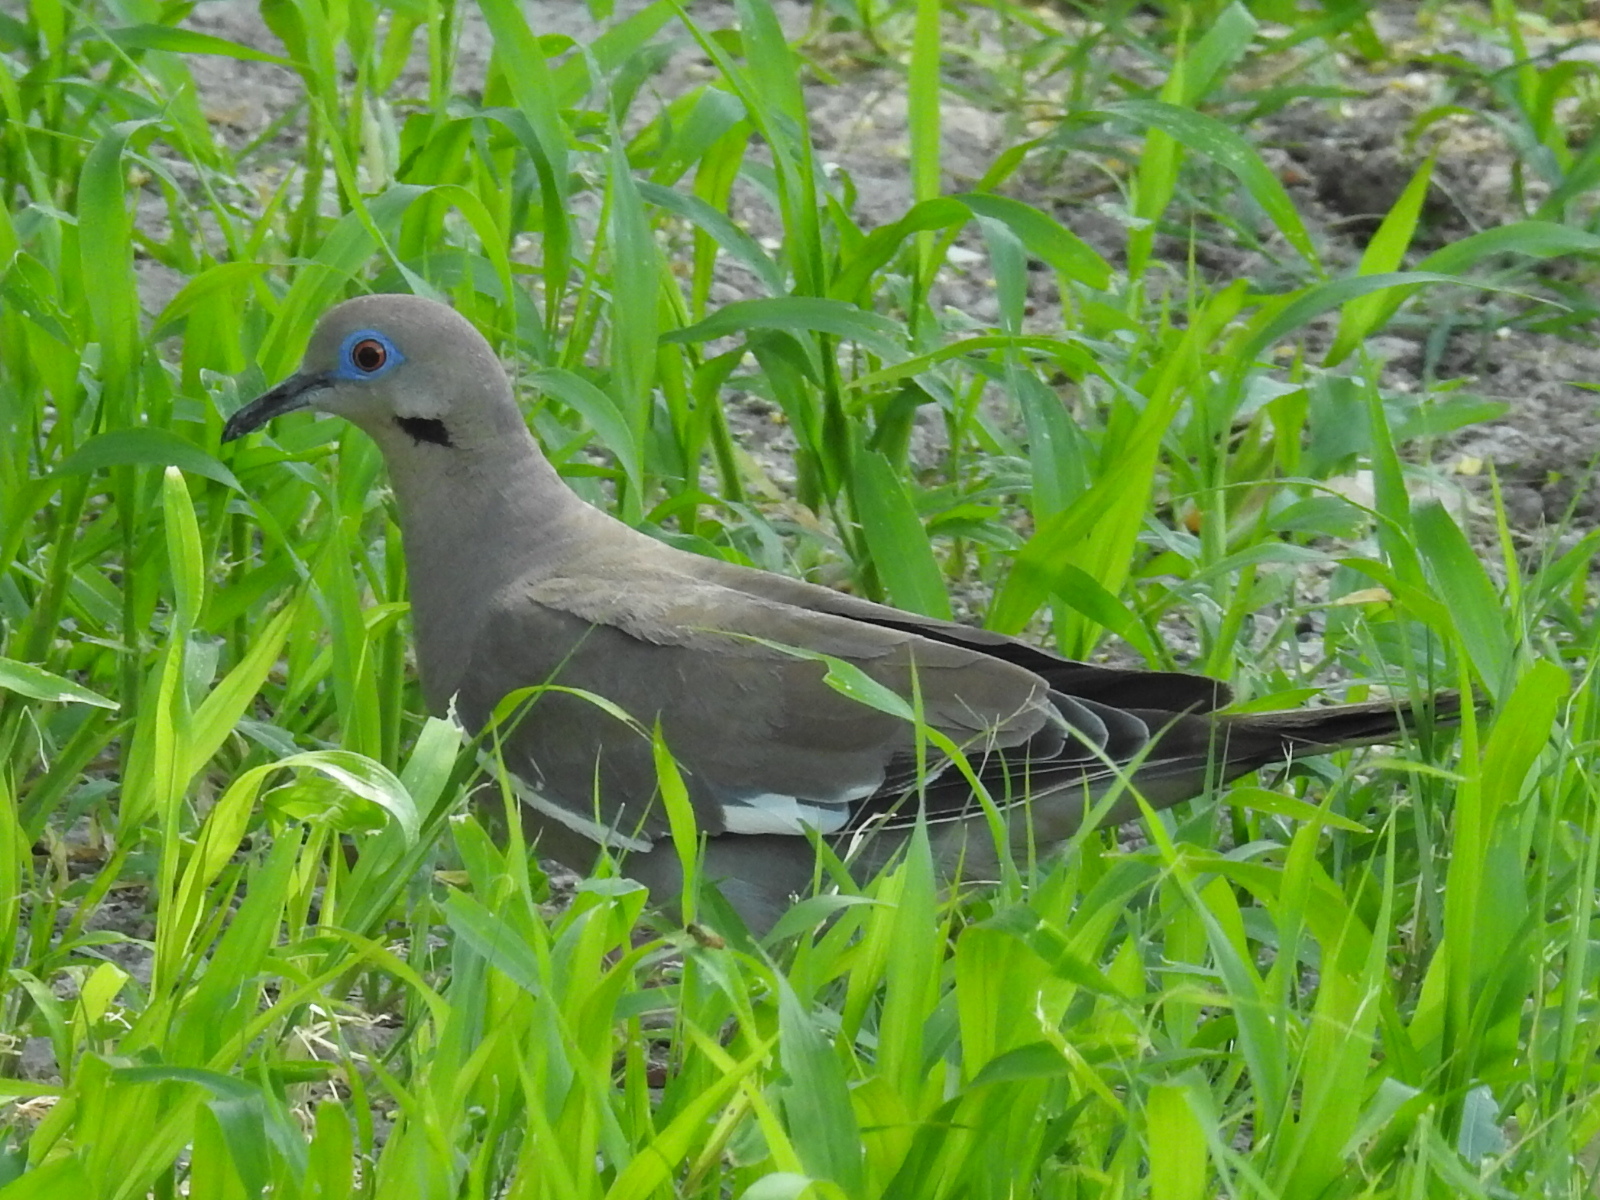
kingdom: Animalia
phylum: Chordata
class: Aves
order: Columbiformes
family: Columbidae
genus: Zenaida
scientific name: Zenaida asiatica
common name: White-winged dove
